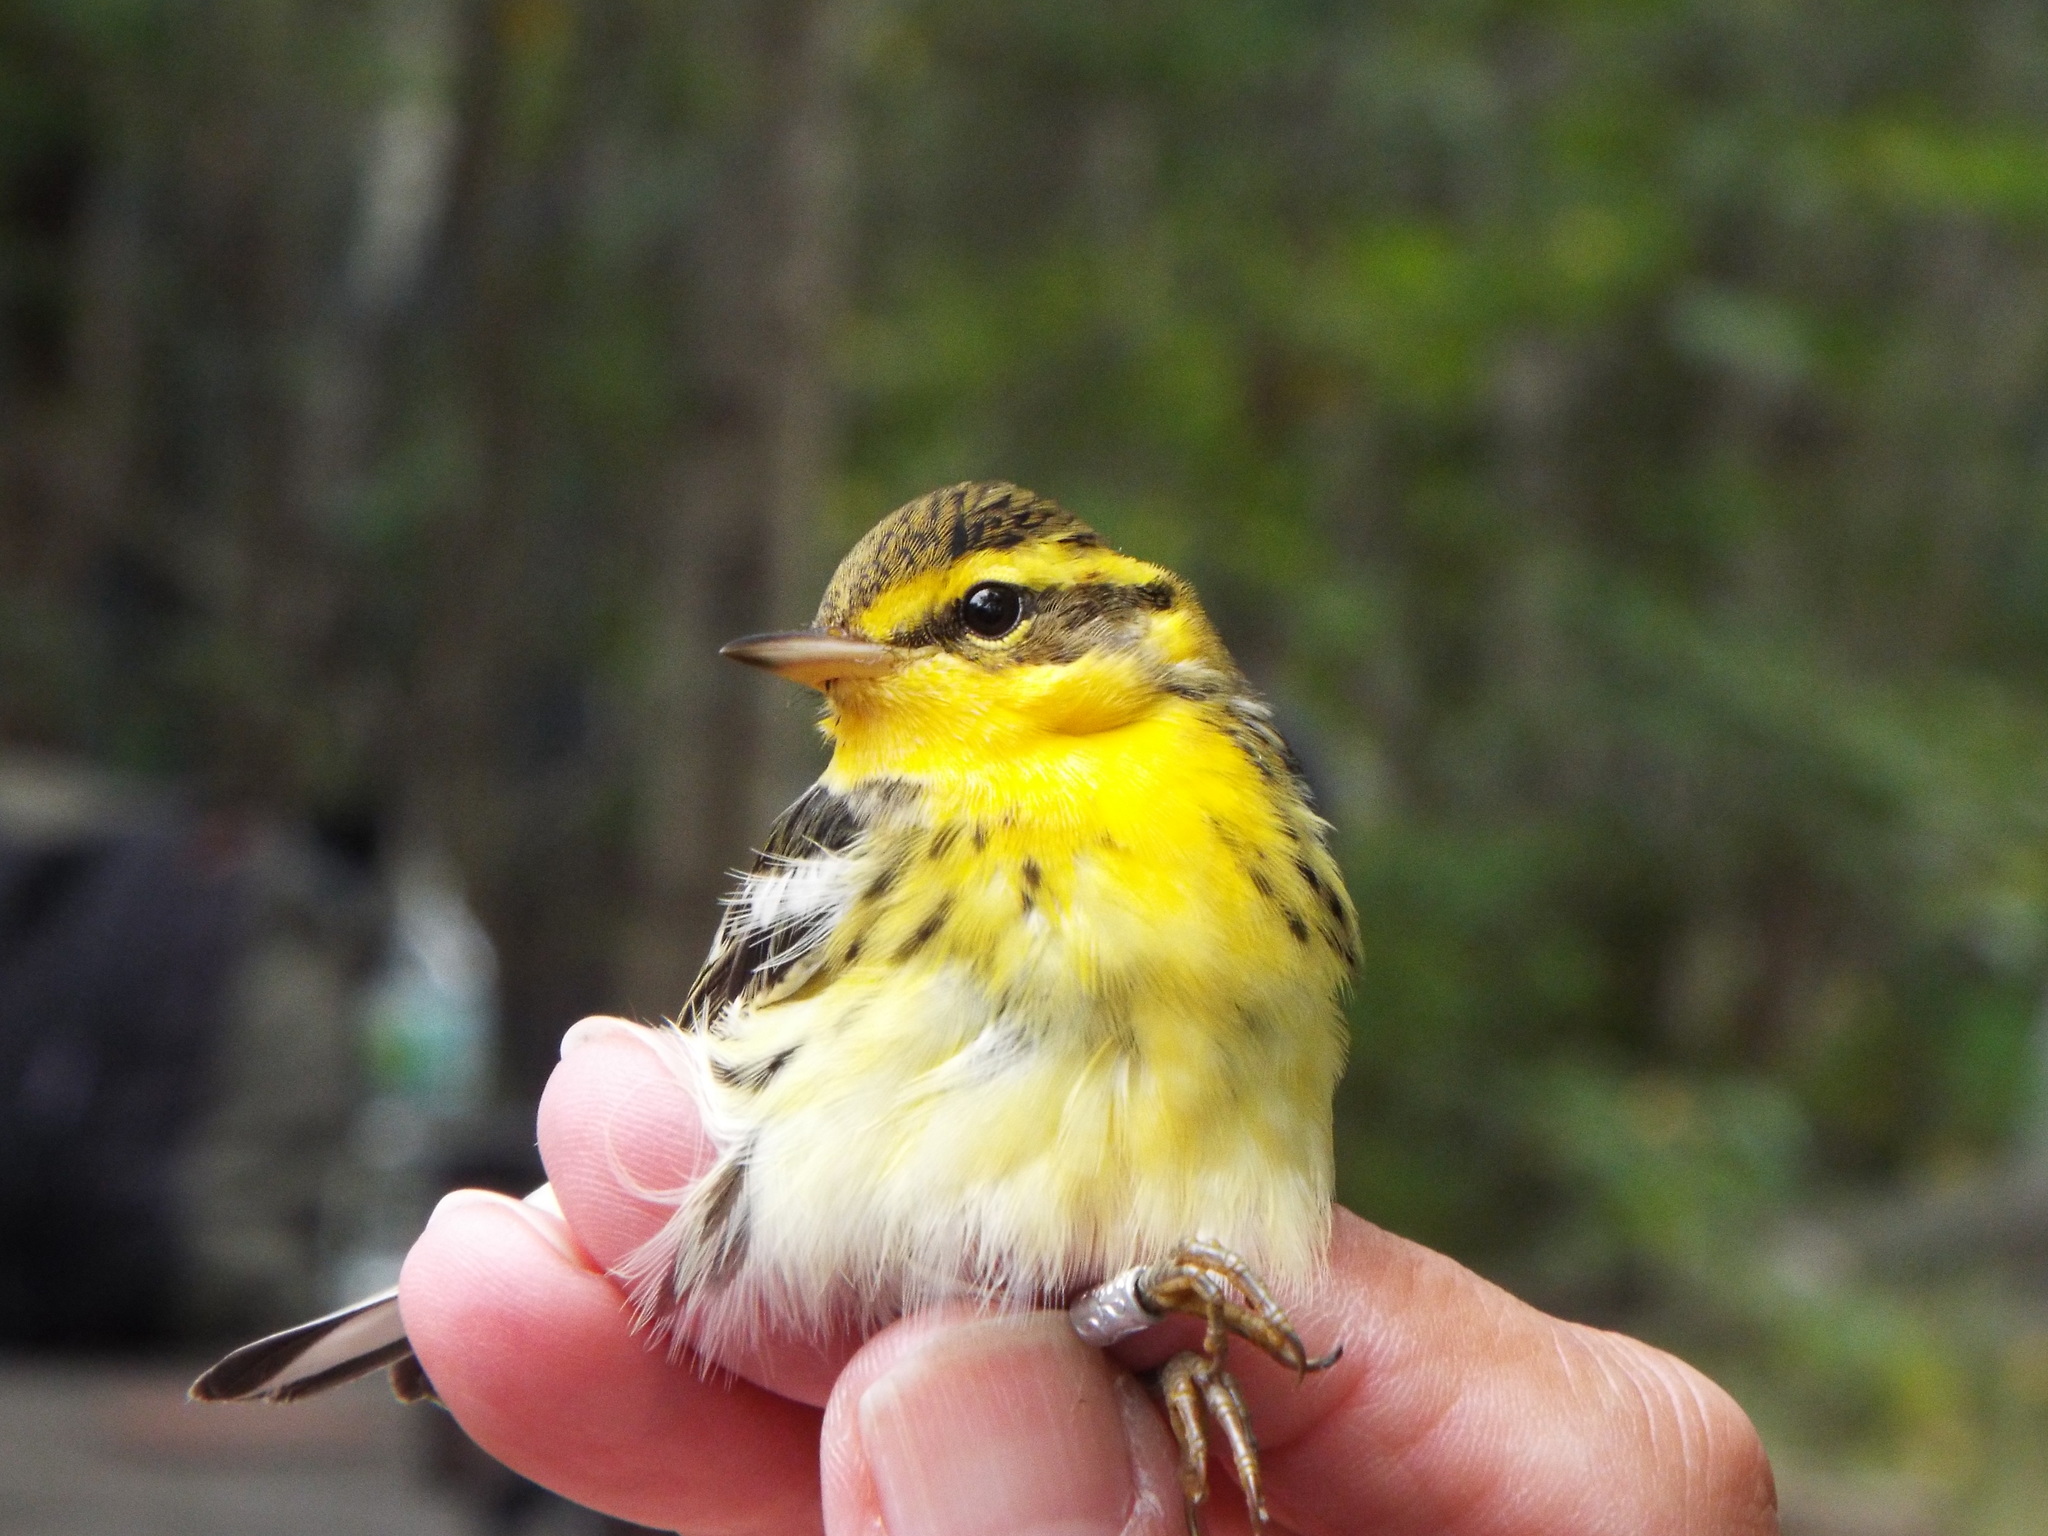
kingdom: Animalia
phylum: Chordata
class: Aves
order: Passeriformes
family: Parulidae
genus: Setophaga
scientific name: Setophaga fusca
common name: Blackburnian warbler
